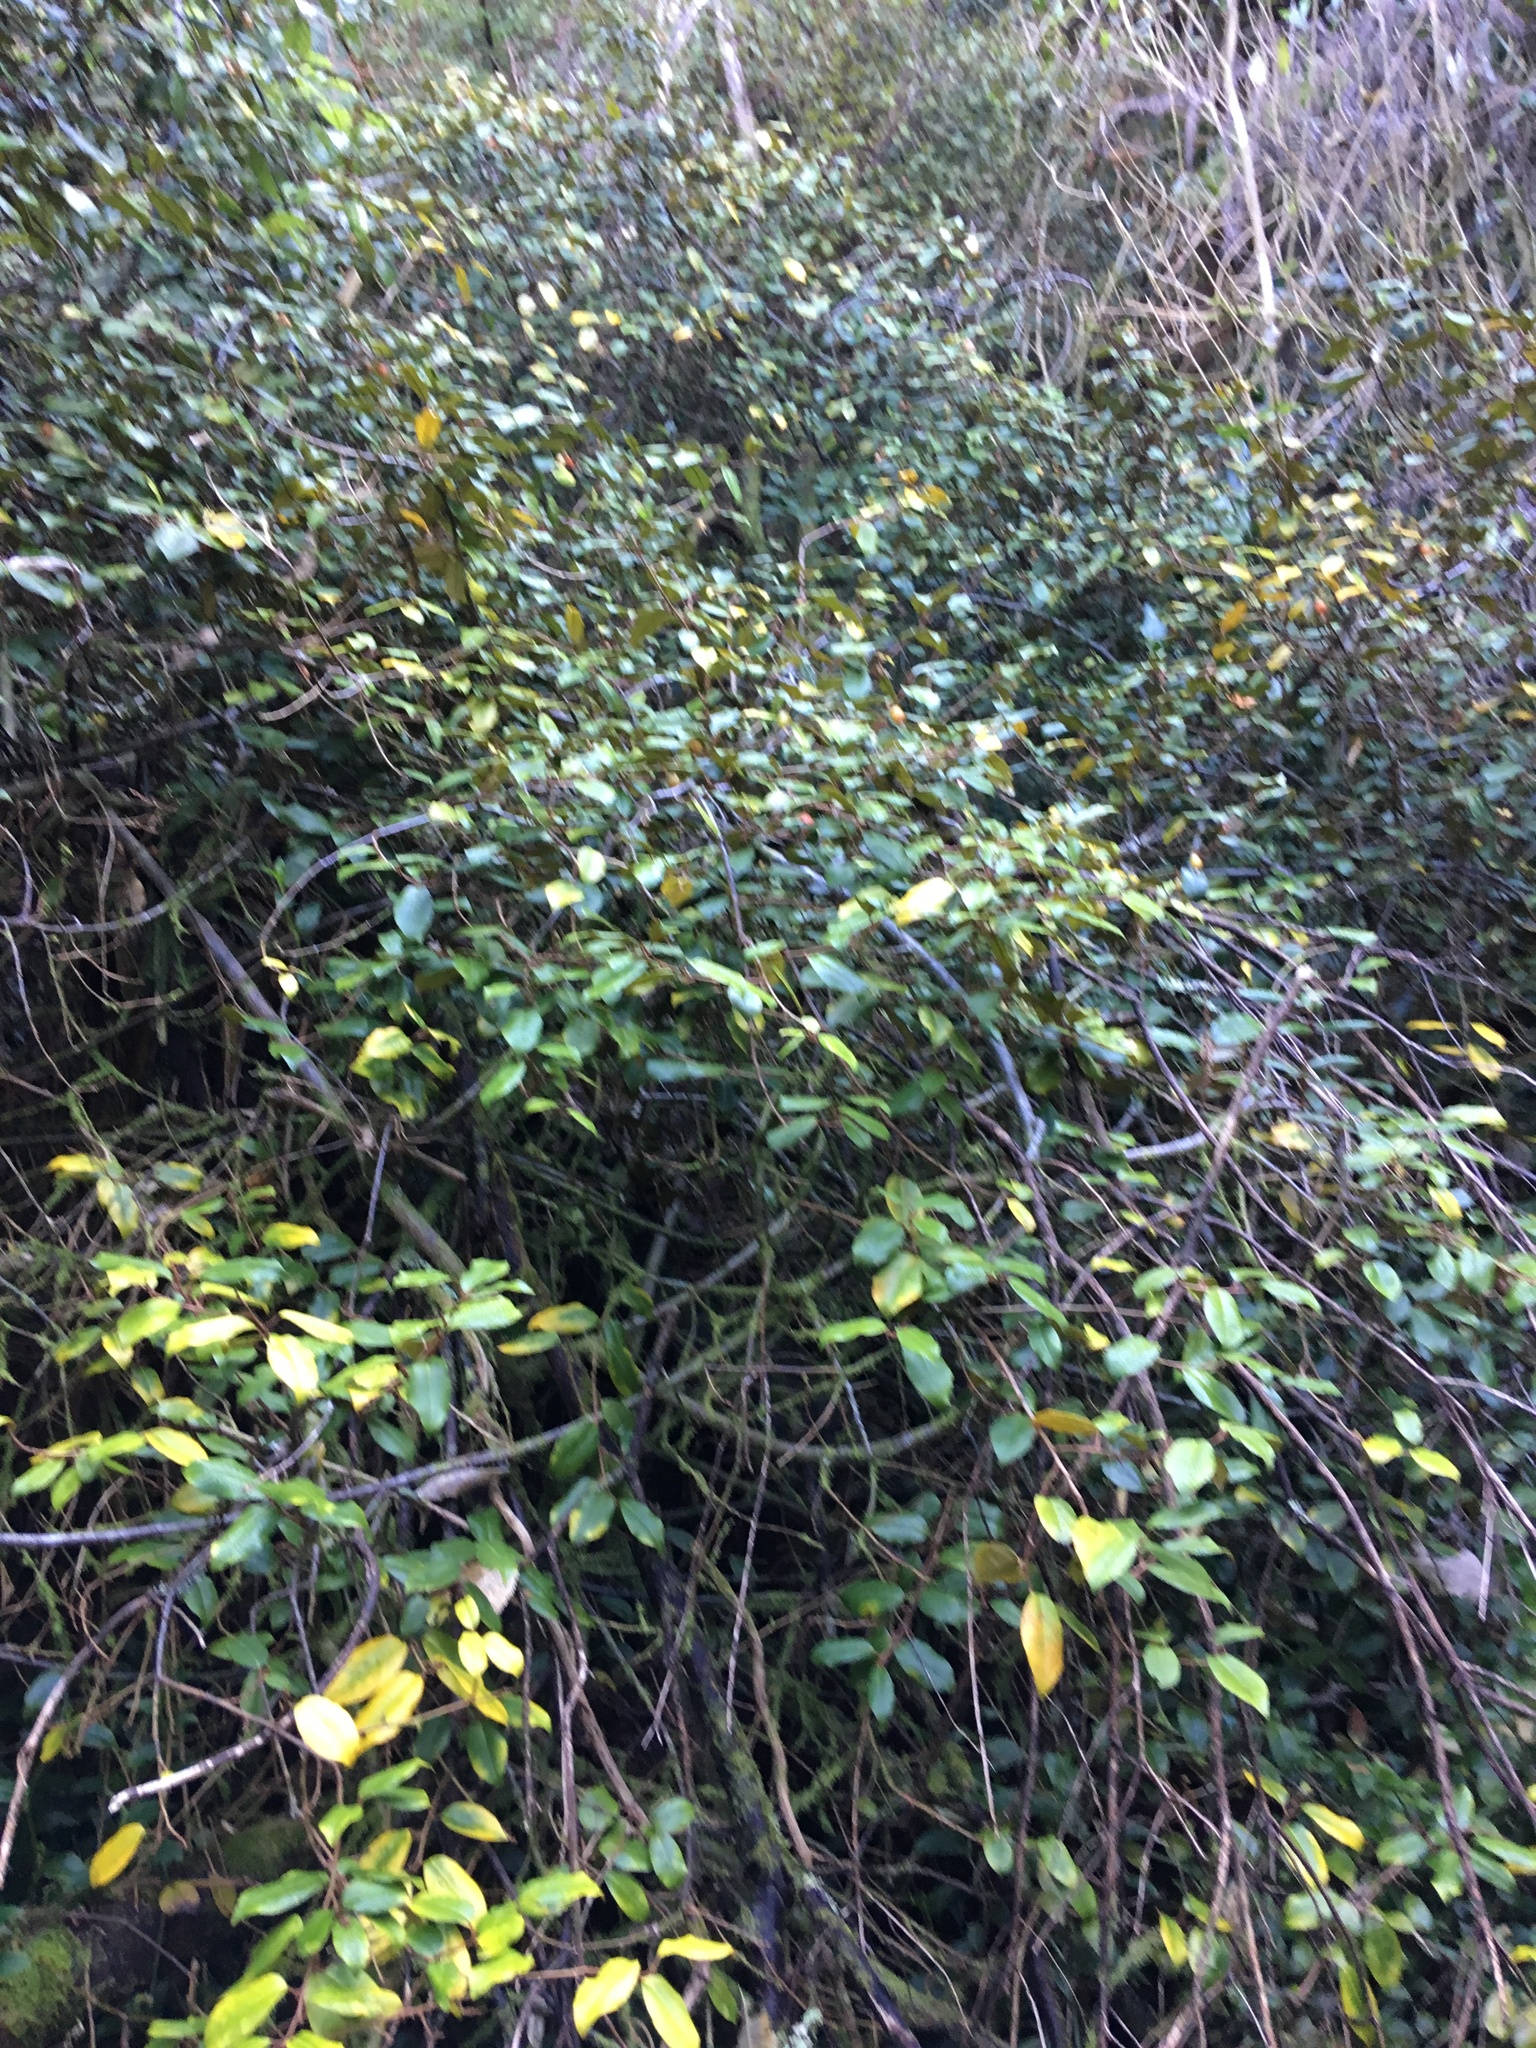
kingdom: Plantae
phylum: Tracheophyta
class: Magnoliopsida
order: Rosales
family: Elaeagnaceae
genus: Elaeagnus
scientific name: Elaeagnus reflexa
